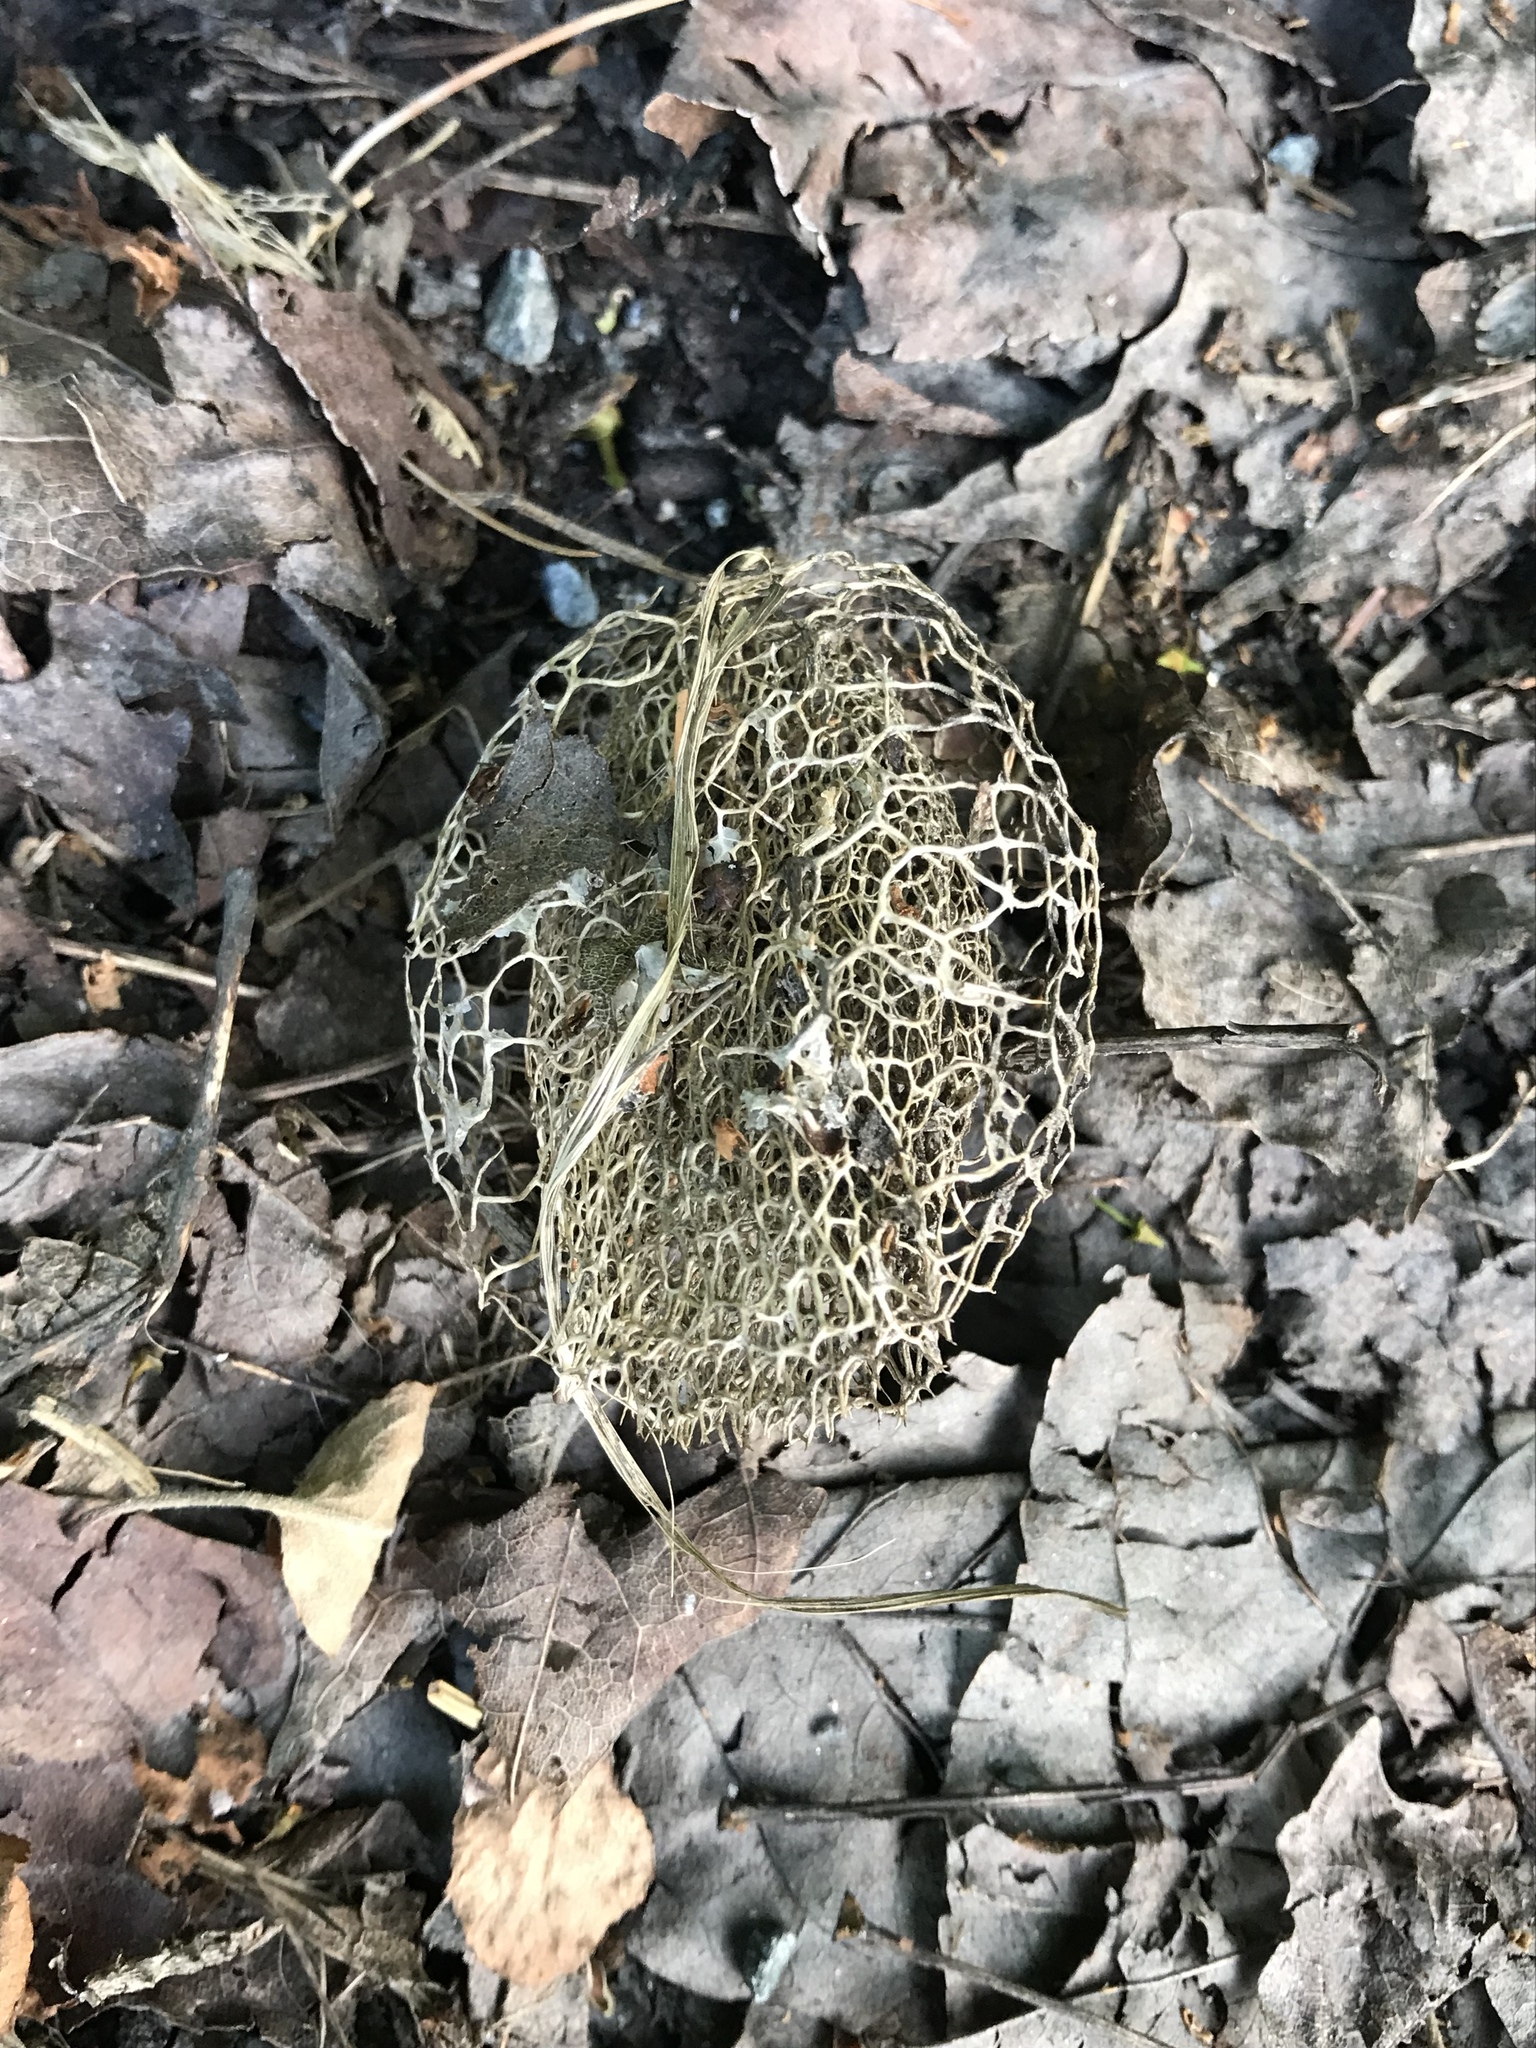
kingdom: Plantae
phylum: Tracheophyta
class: Magnoliopsida
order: Cucurbitales
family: Cucurbitaceae
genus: Echinocystis
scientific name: Echinocystis lobata
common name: Wild cucumber
